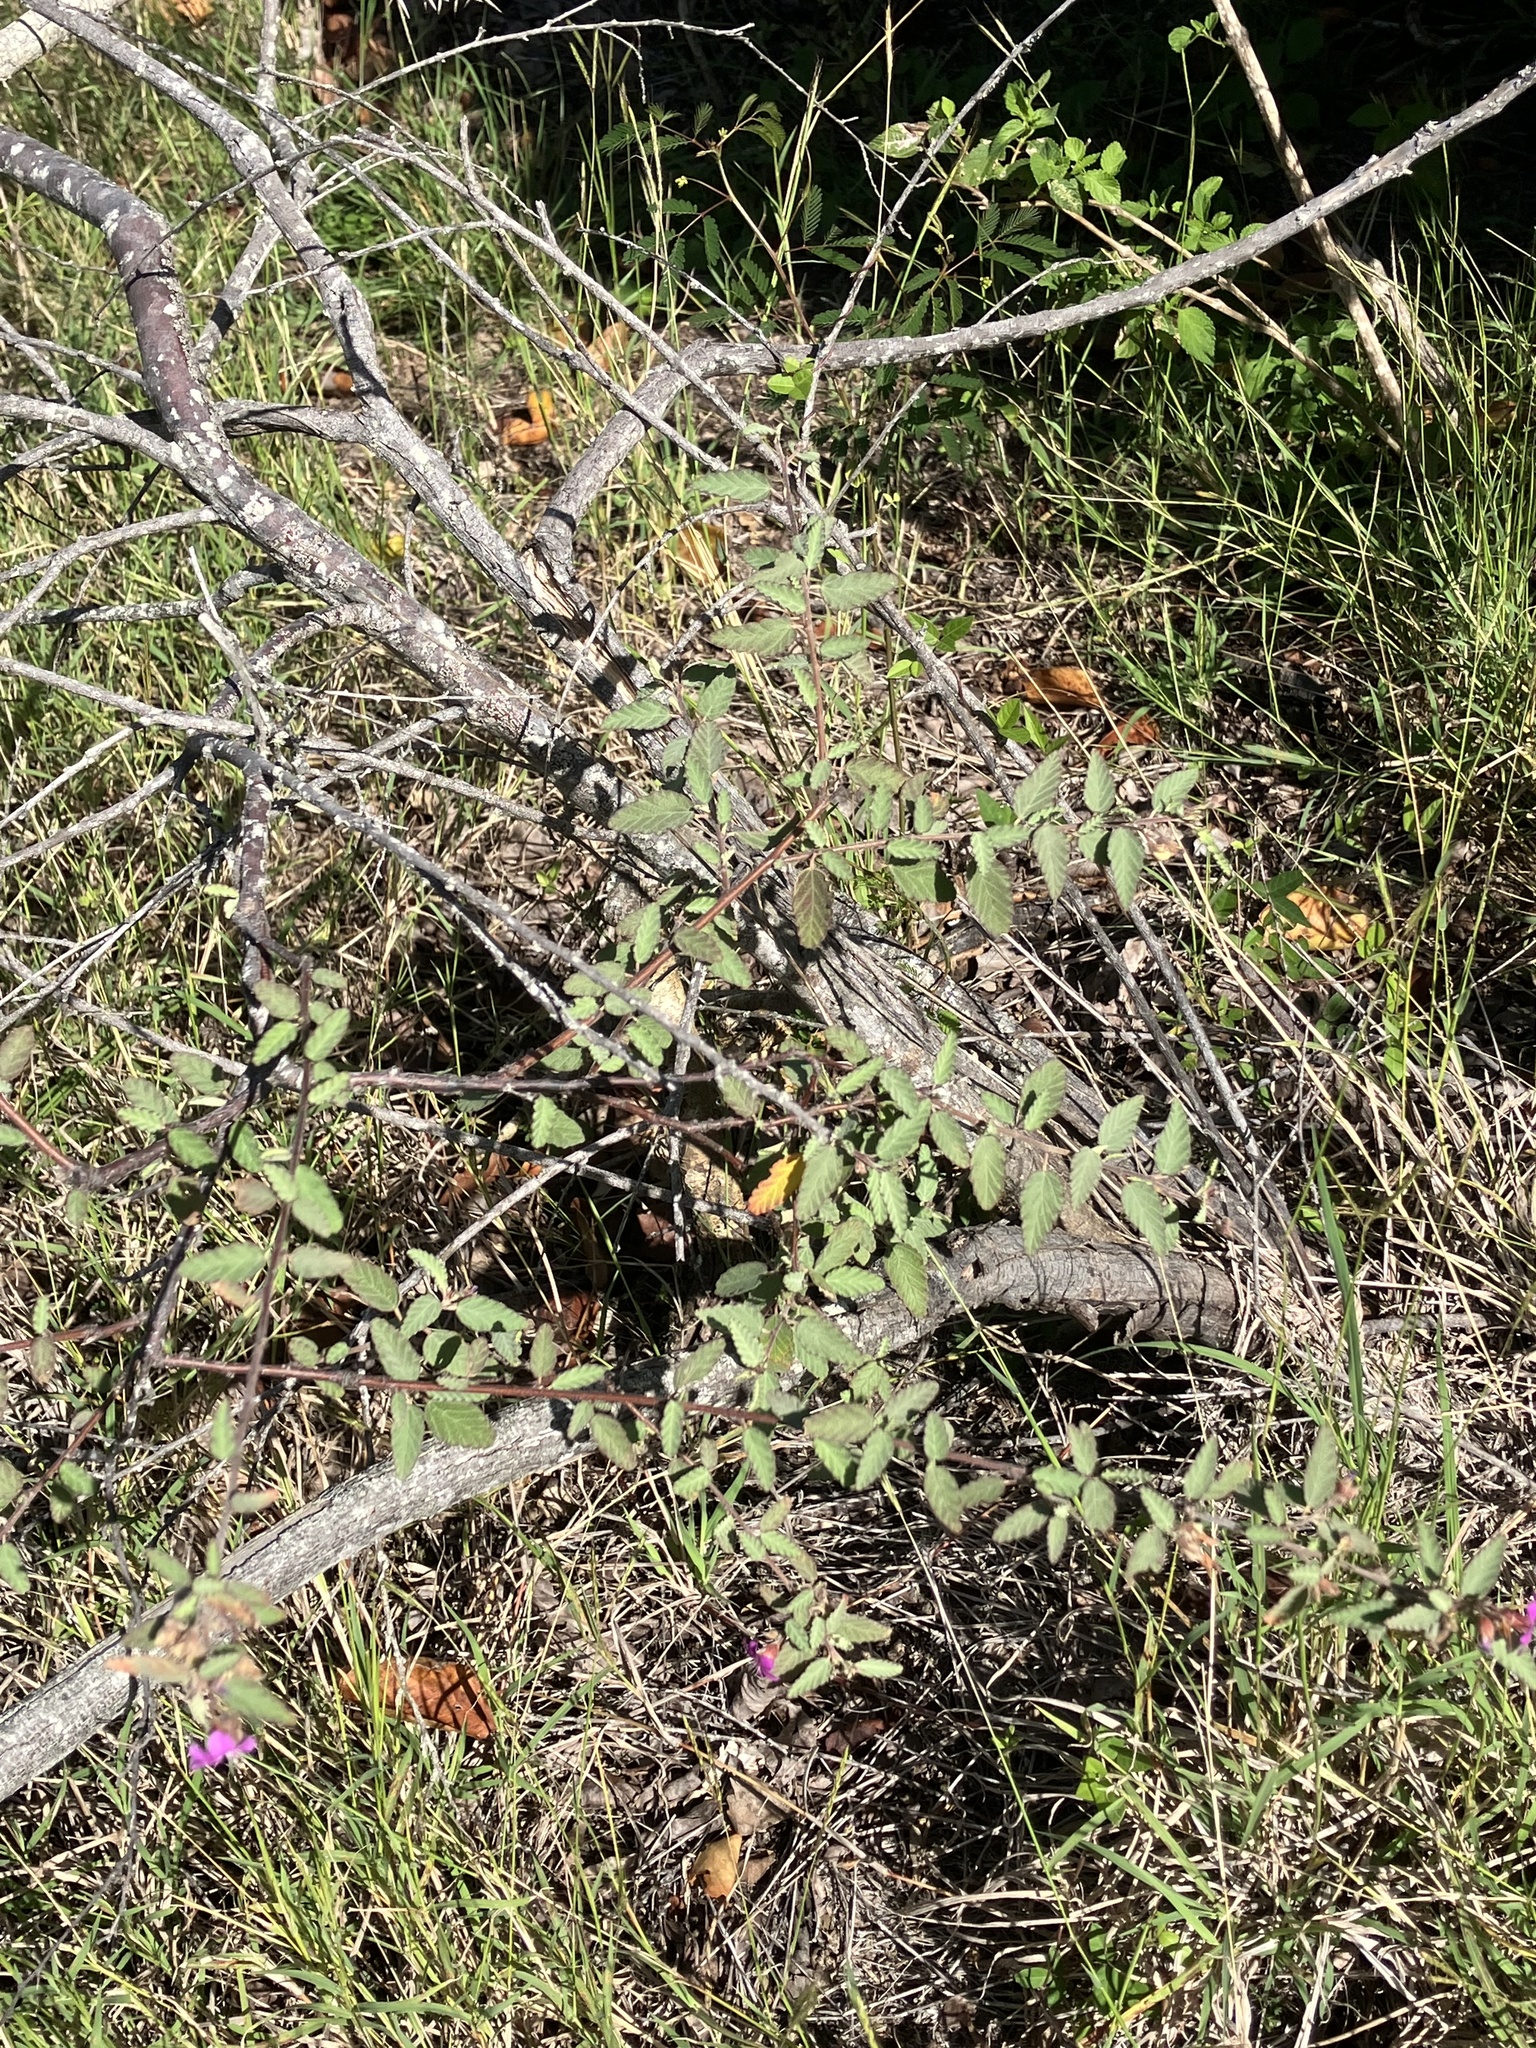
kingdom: Plantae
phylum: Tracheophyta
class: Magnoliopsida
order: Malvales
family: Malvaceae
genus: Melochia
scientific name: Melochia tomentosa
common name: Black torch
